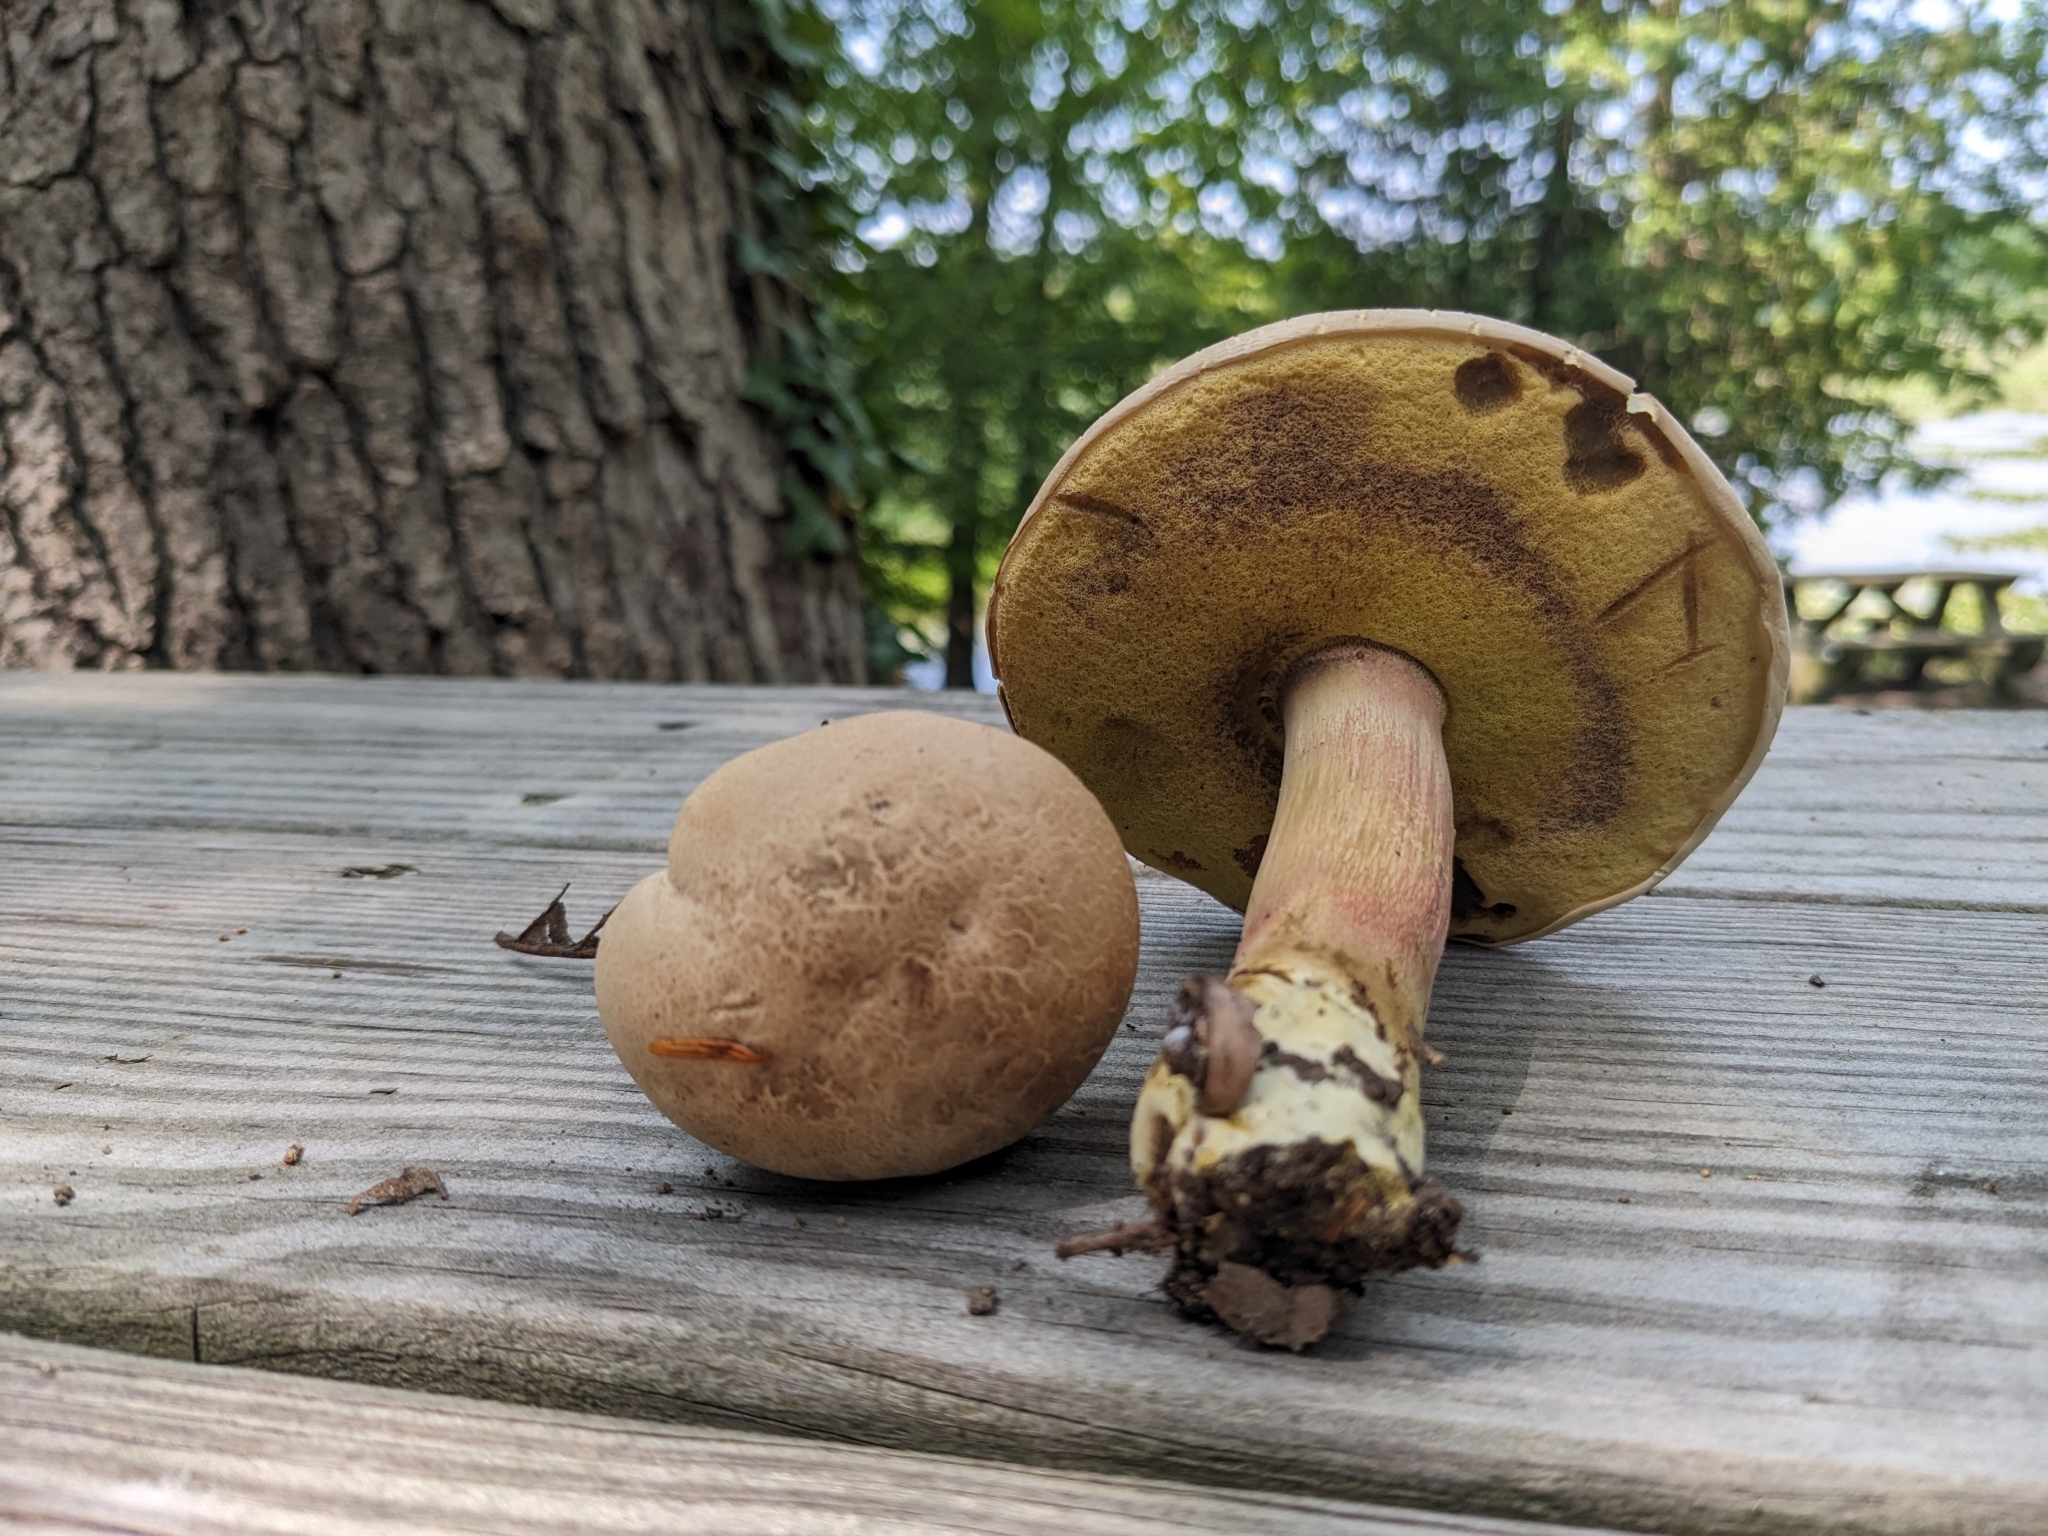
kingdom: Fungi
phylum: Basidiomycota
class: Agaricomycetes
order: Boletales
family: Boletaceae
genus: Caloboletus
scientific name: Caloboletus inedulis
